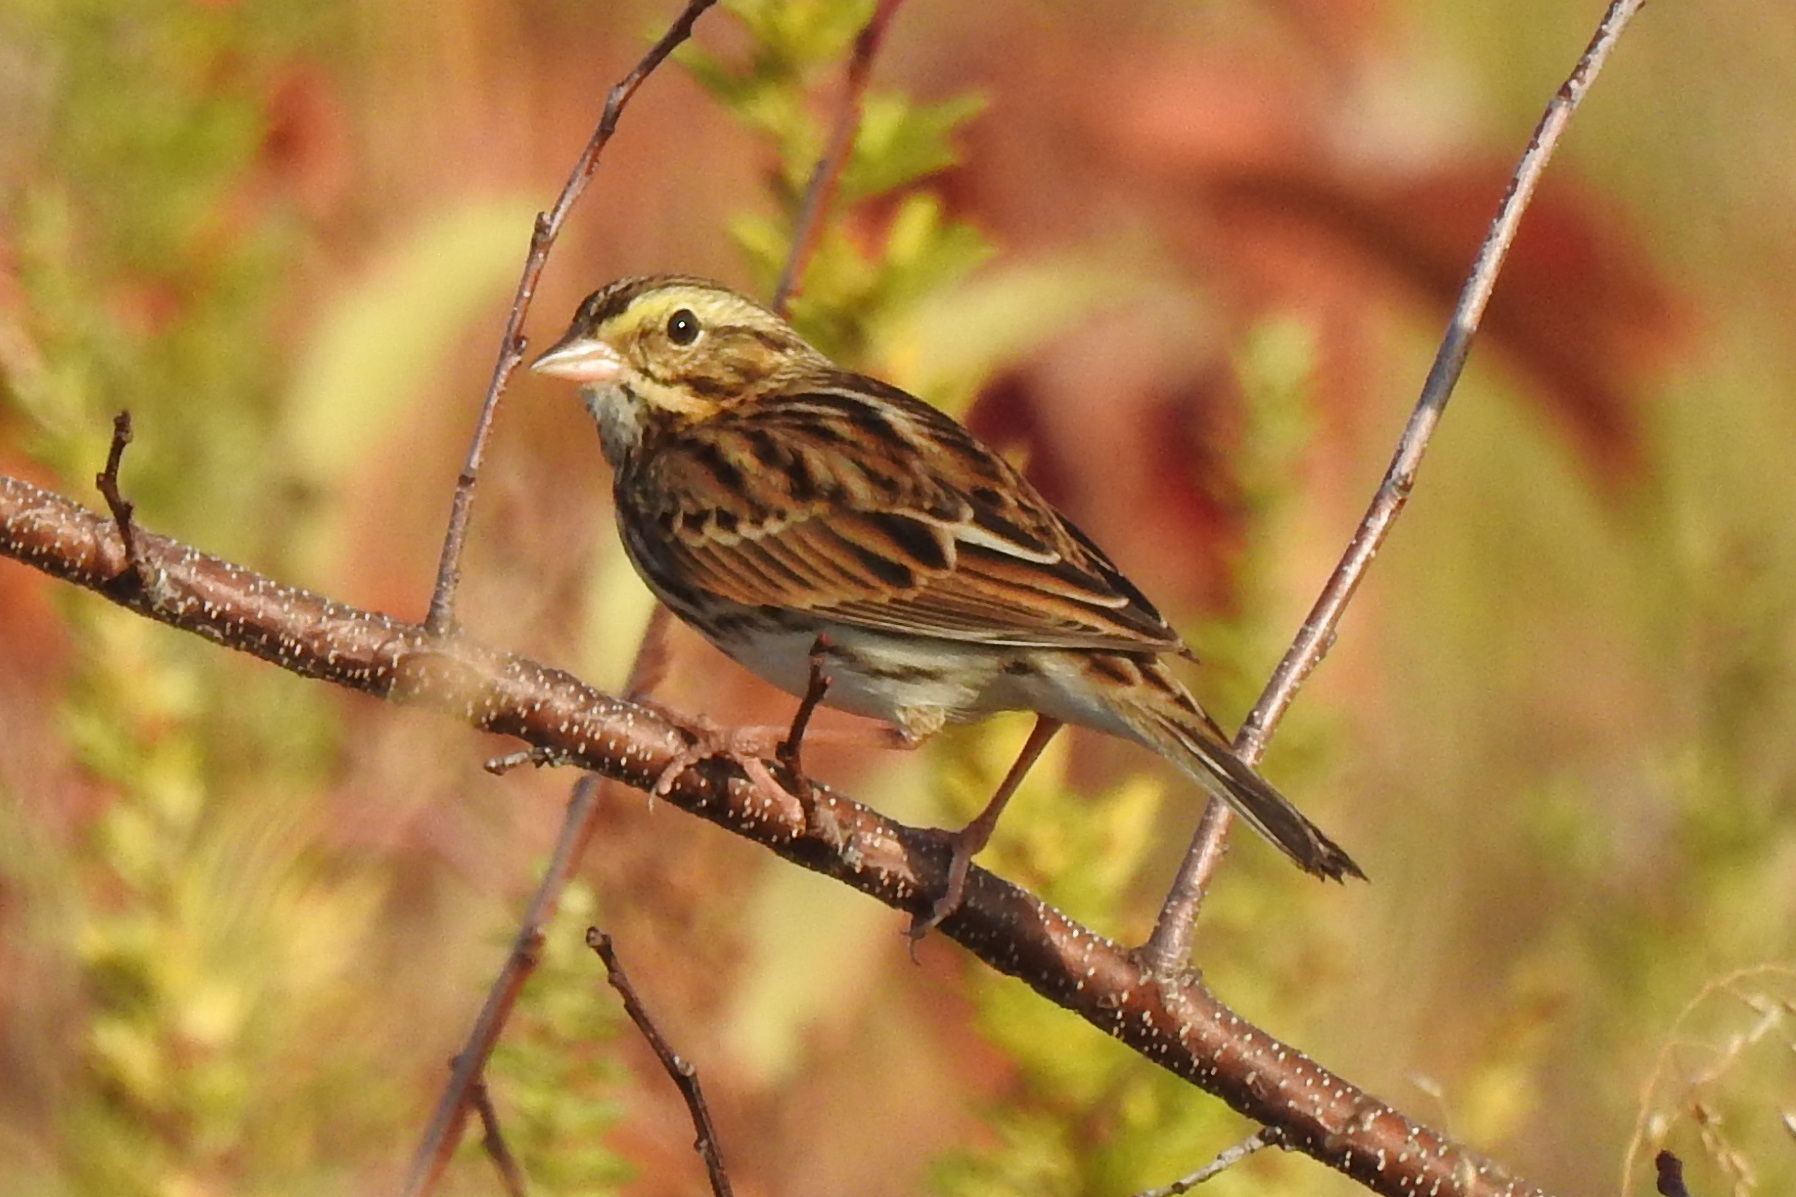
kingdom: Animalia
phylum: Chordata
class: Aves
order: Passeriformes
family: Passerellidae
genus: Passerculus
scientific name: Passerculus sandwichensis
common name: Savannah sparrow
